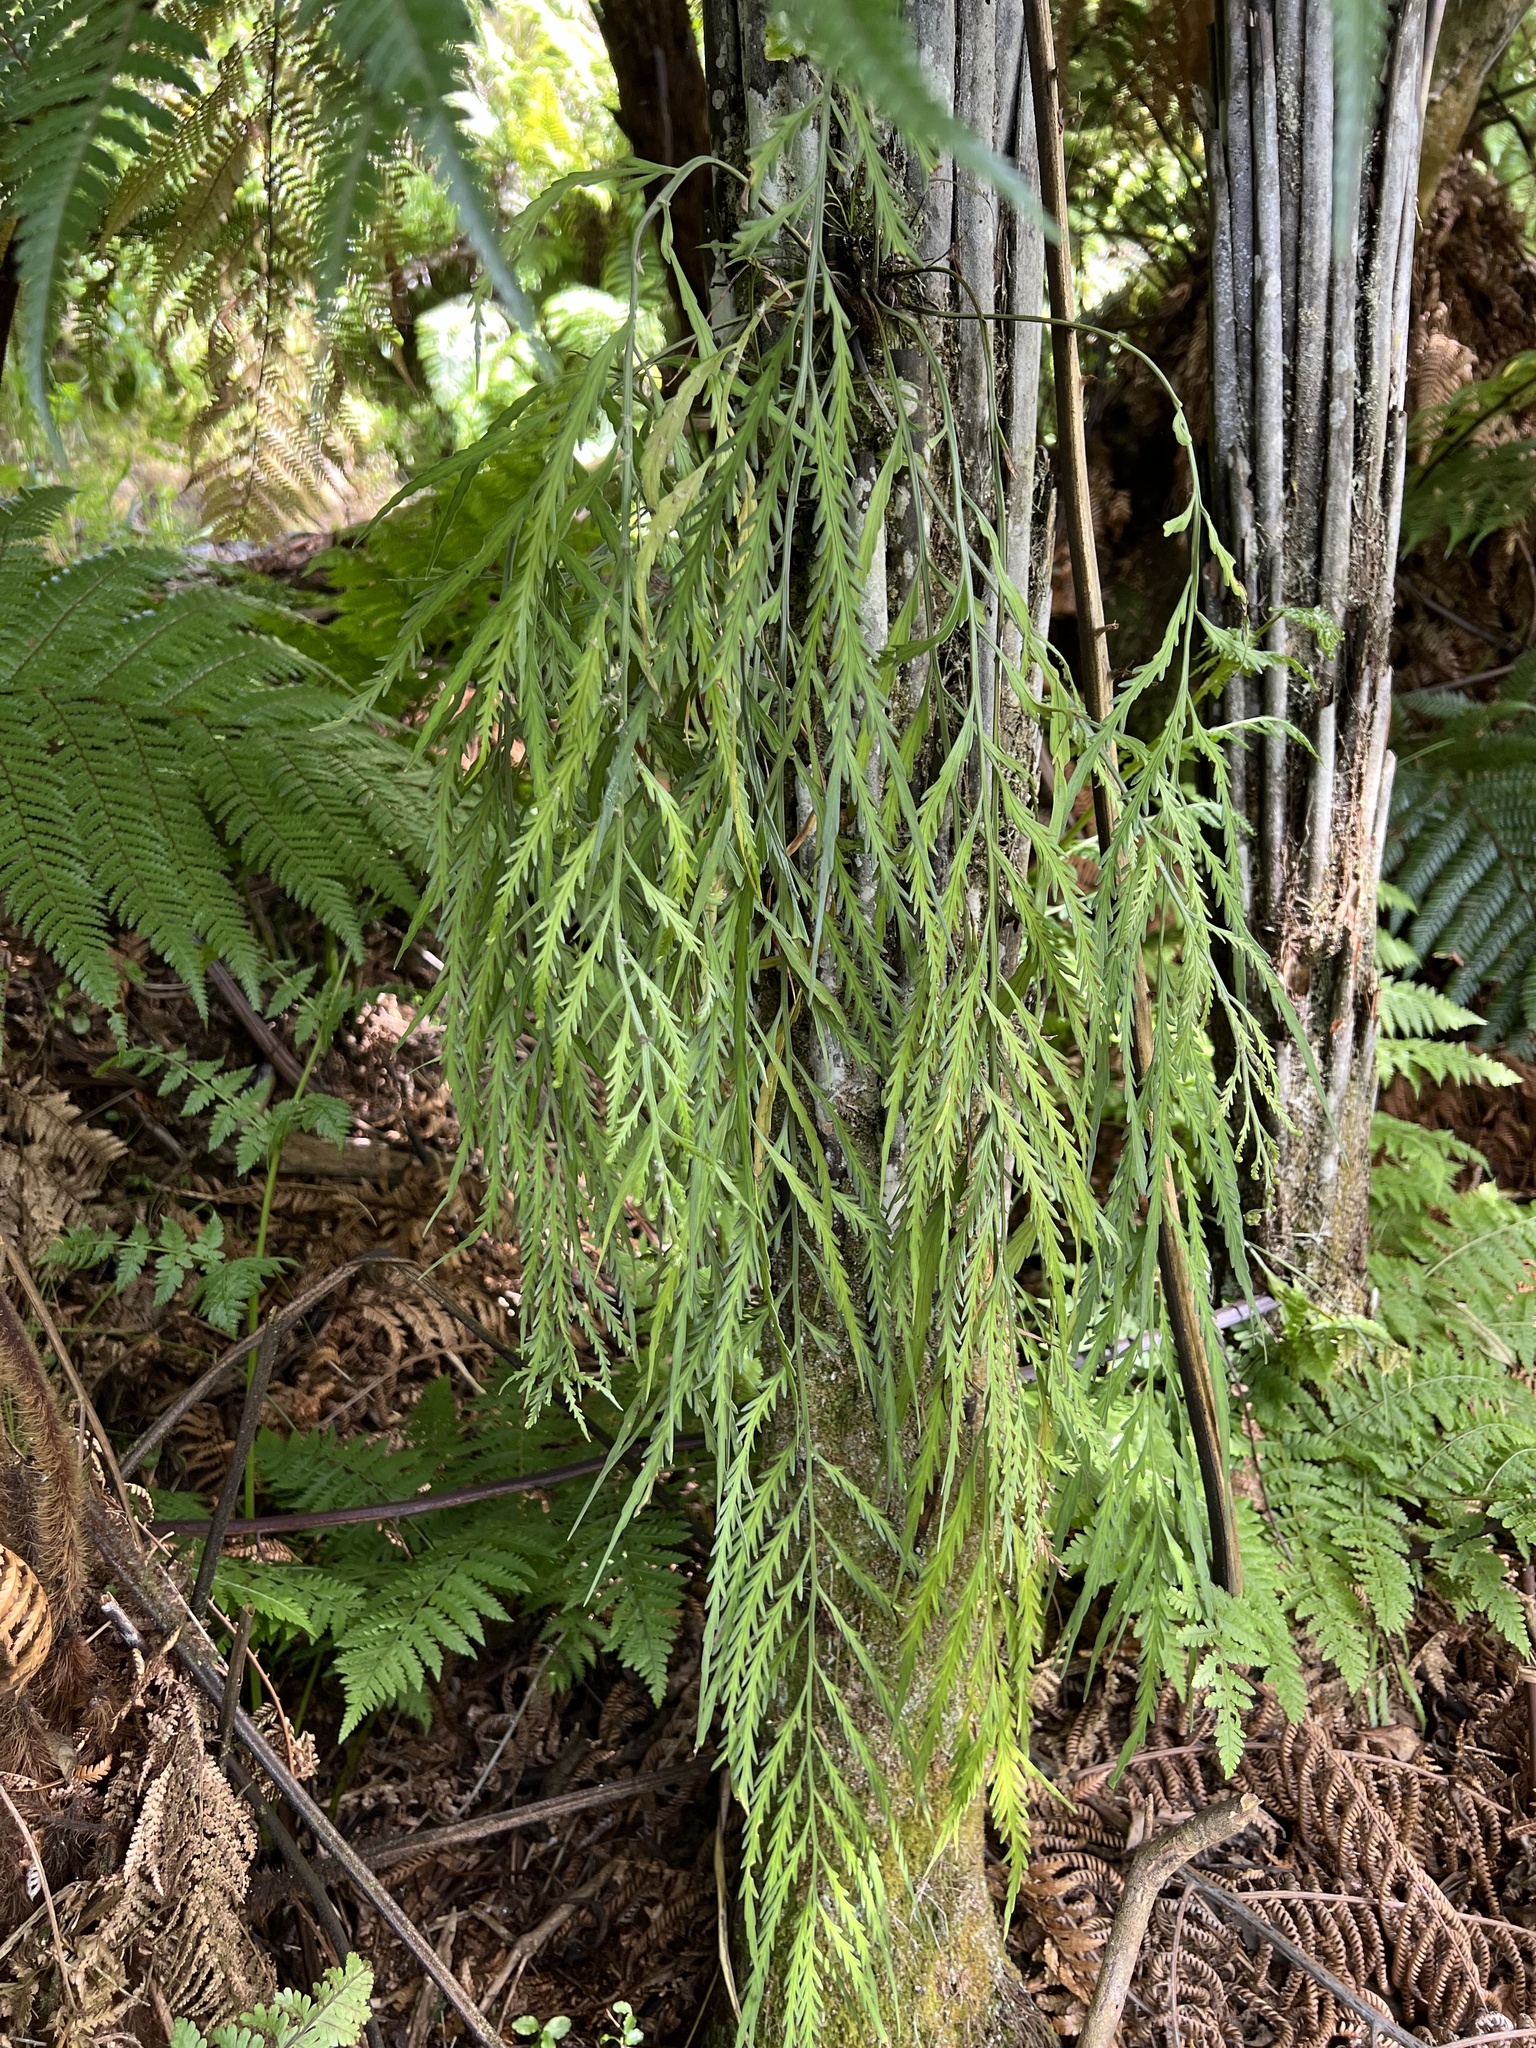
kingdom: Plantae
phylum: Tracheophyta
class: Polypodiopsida
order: Polypodiales
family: Aspleniaceae
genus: Asplenium
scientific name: Asplenium flaccidum
